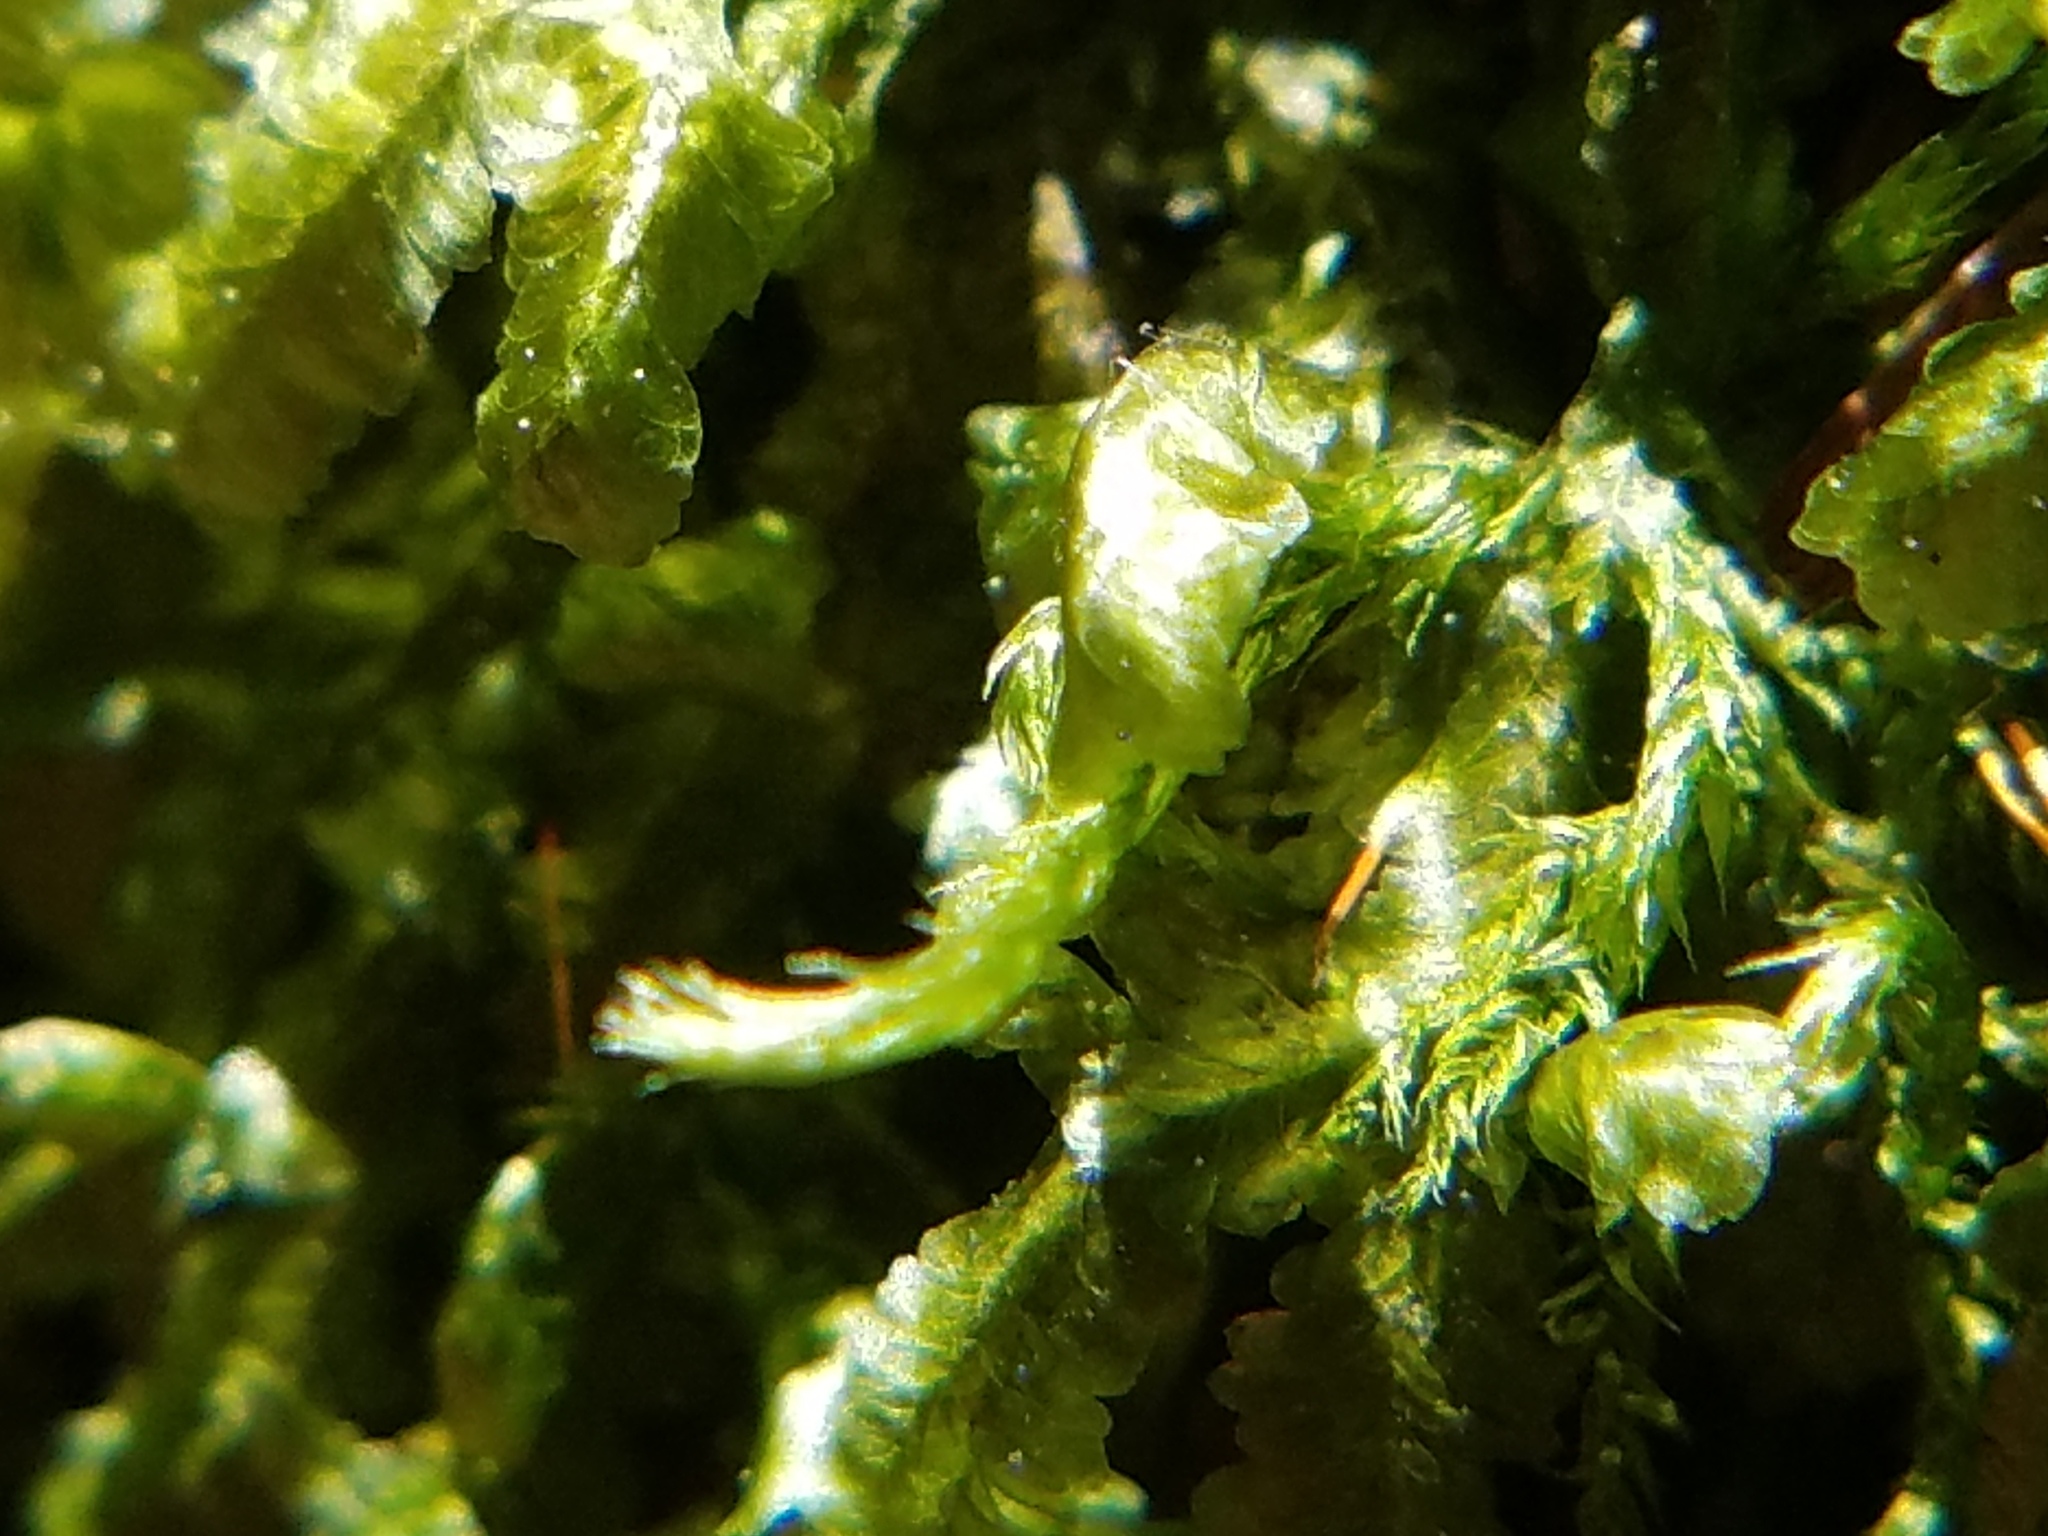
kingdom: Plantae
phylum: Bryophyta
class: Bryopsida
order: Hypnales
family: Neckeraceae
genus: Homalia
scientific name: Homalia trichomanoides
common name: Lime homalia moss
